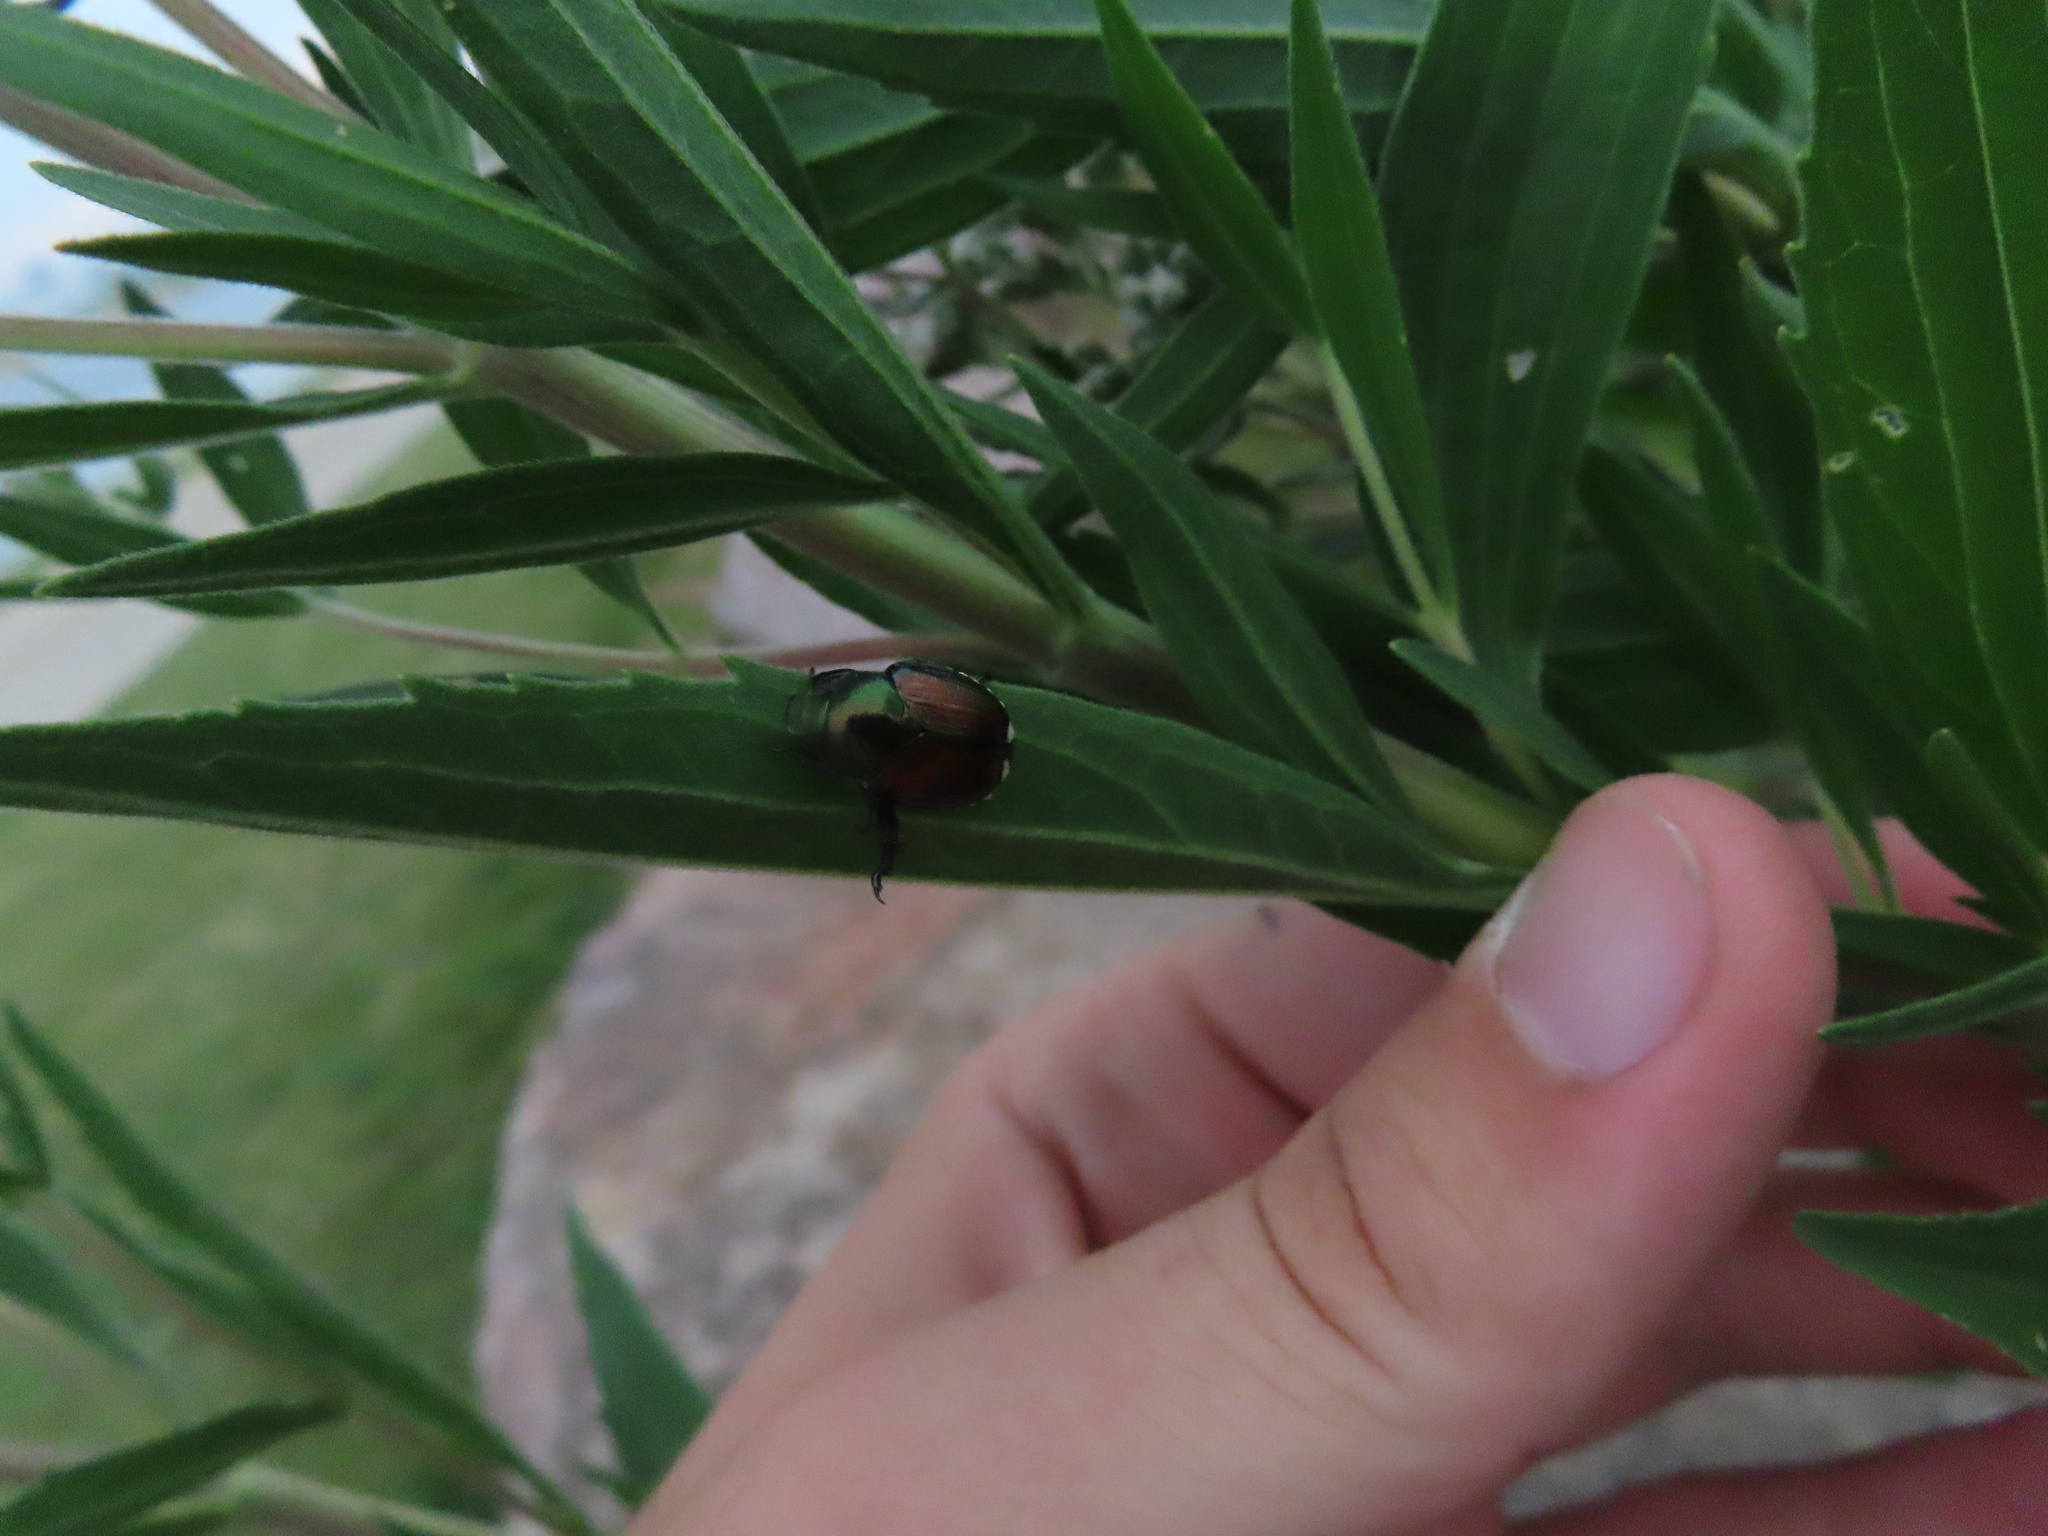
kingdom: Animalia
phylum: Arthropoda
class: Insecta
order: Coleoptera
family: Scarabaeidae
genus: Popillia
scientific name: Popillia japonica
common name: Japanese beetle
